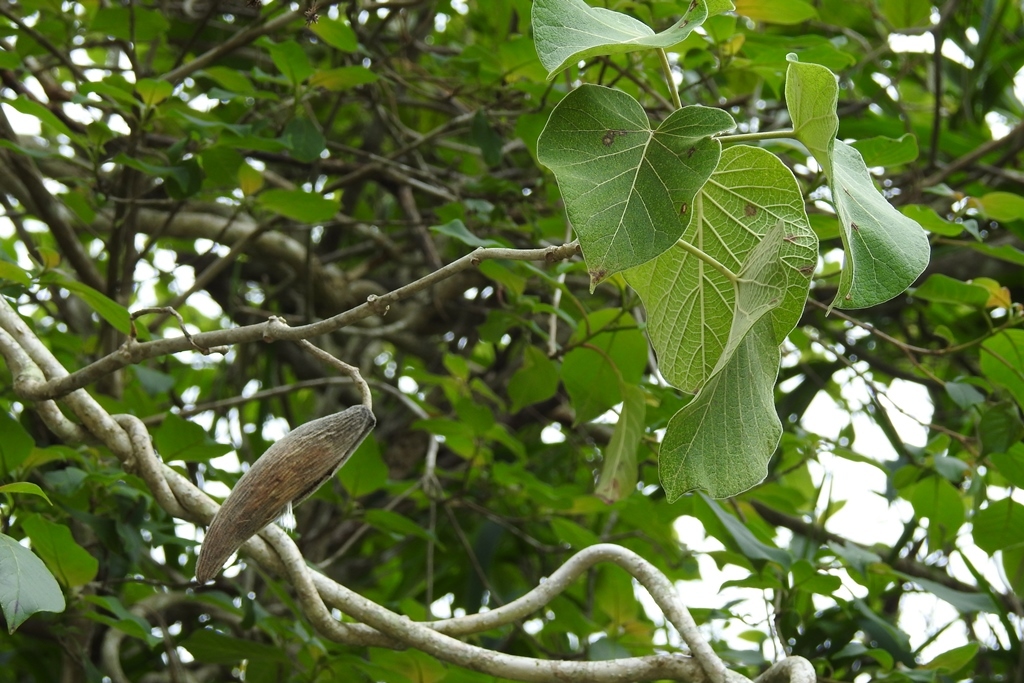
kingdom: Plantae
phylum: Tracheophyta
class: Magnoliopsida
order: Gentianales
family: Apocynaceae
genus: Ruehssia
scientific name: Ruehssia mexicana
